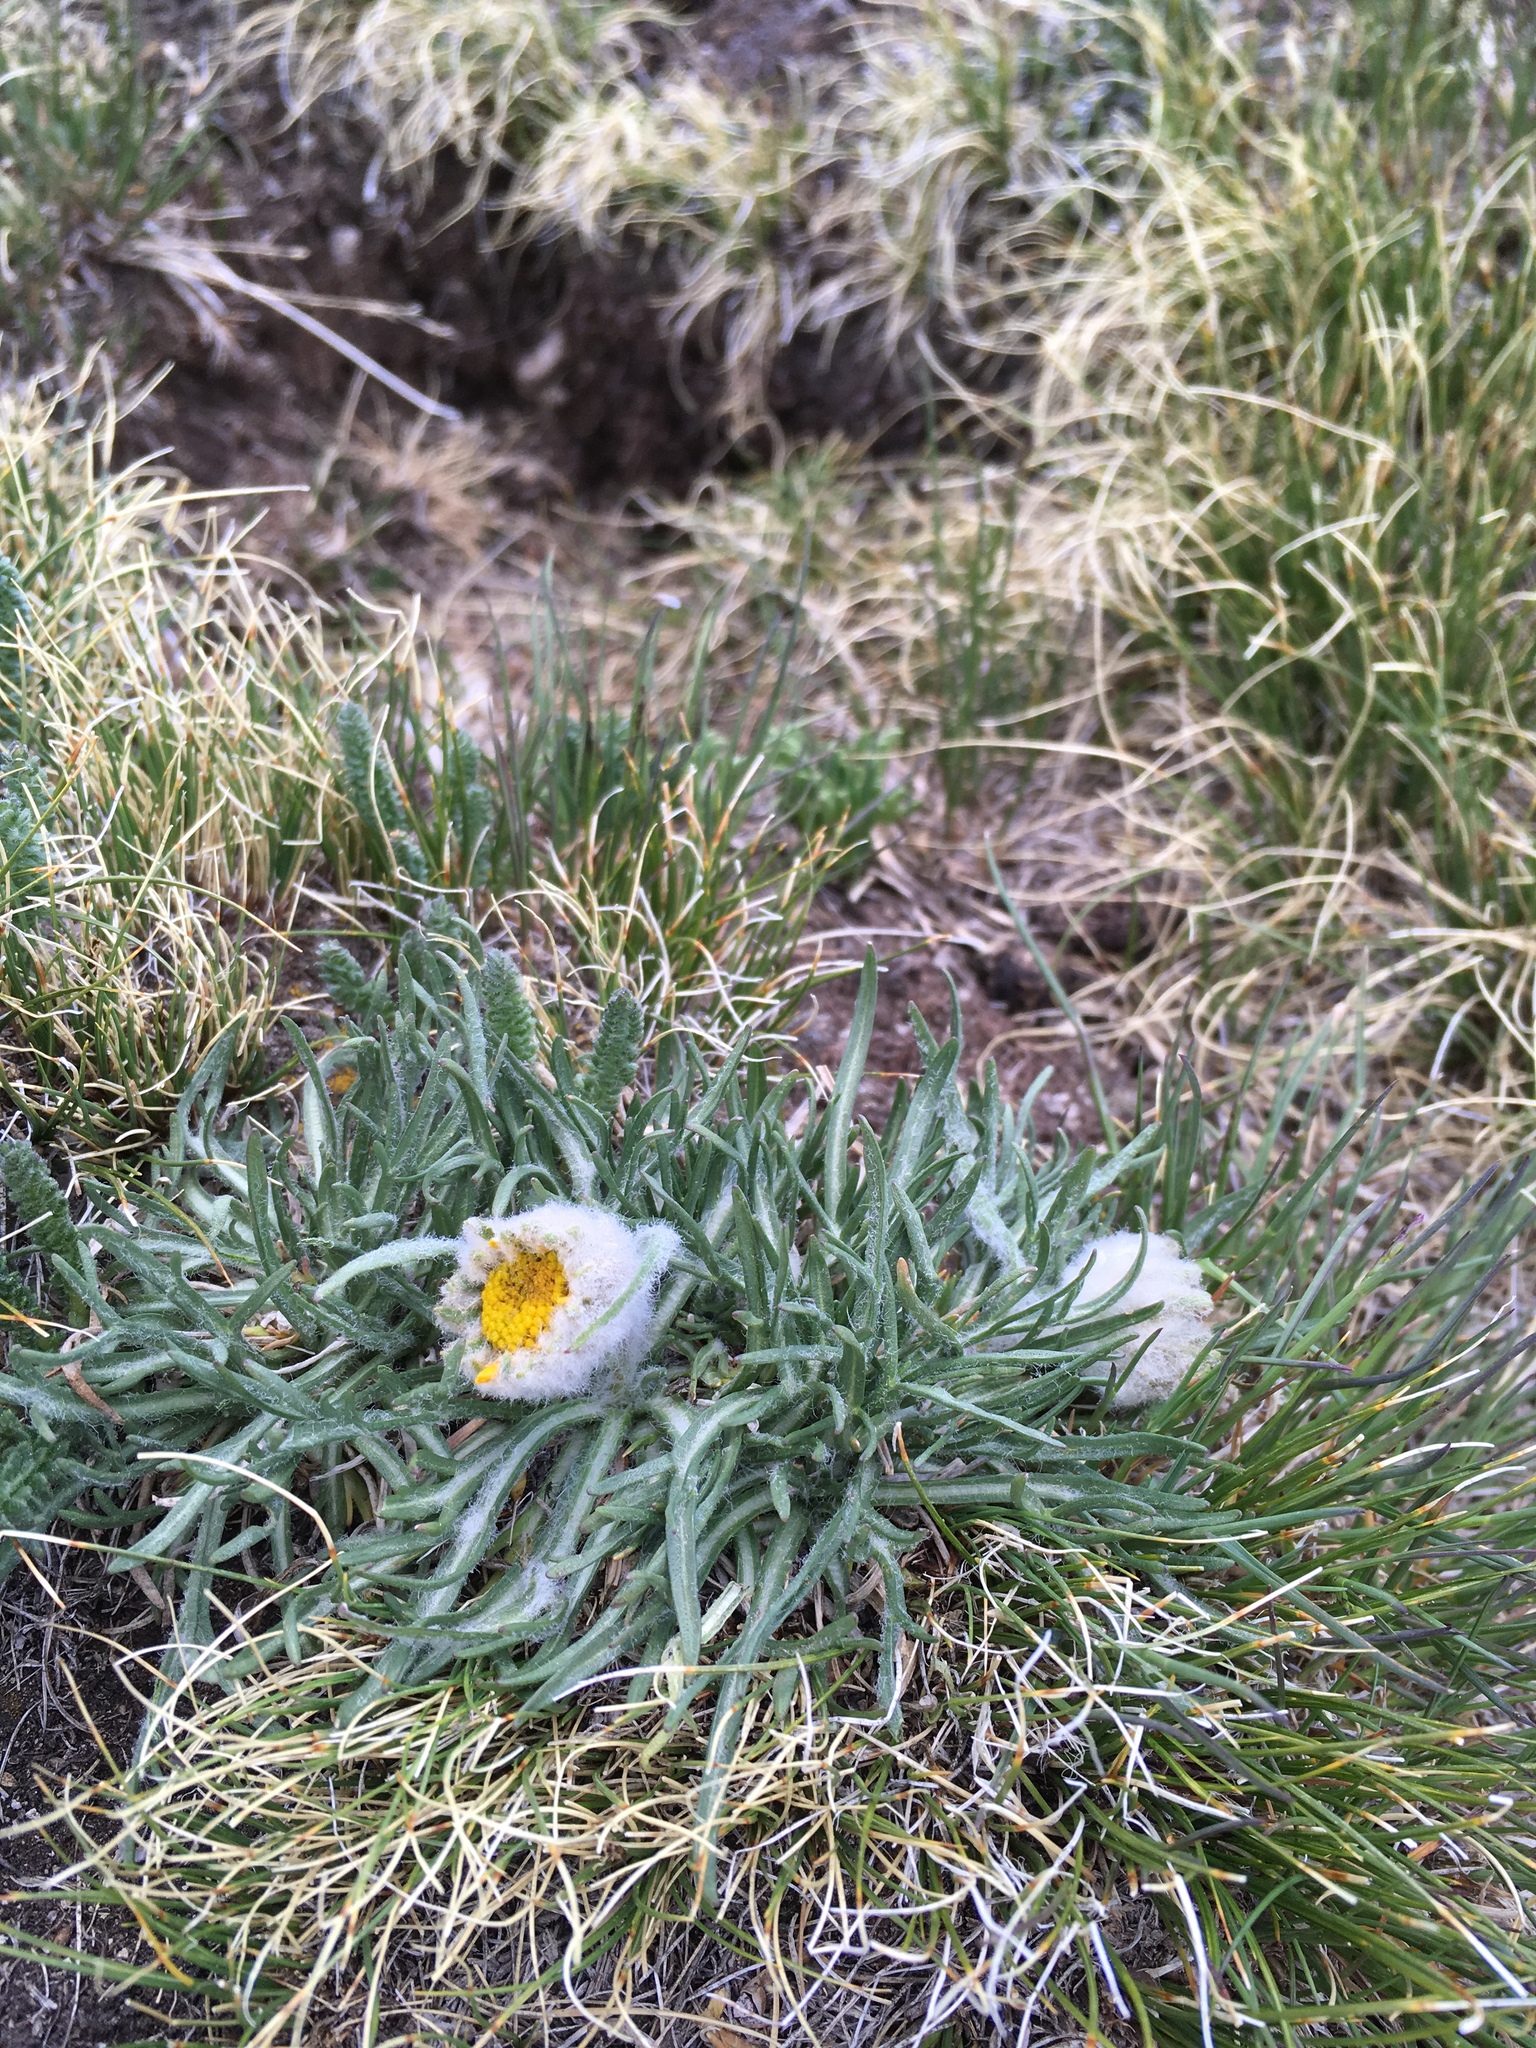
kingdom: Plantae
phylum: Tracheophyta
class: Magnoliopsida
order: Asterales
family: Asteraceae
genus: Hymenoxys
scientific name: Hymenoxys brandegeei
